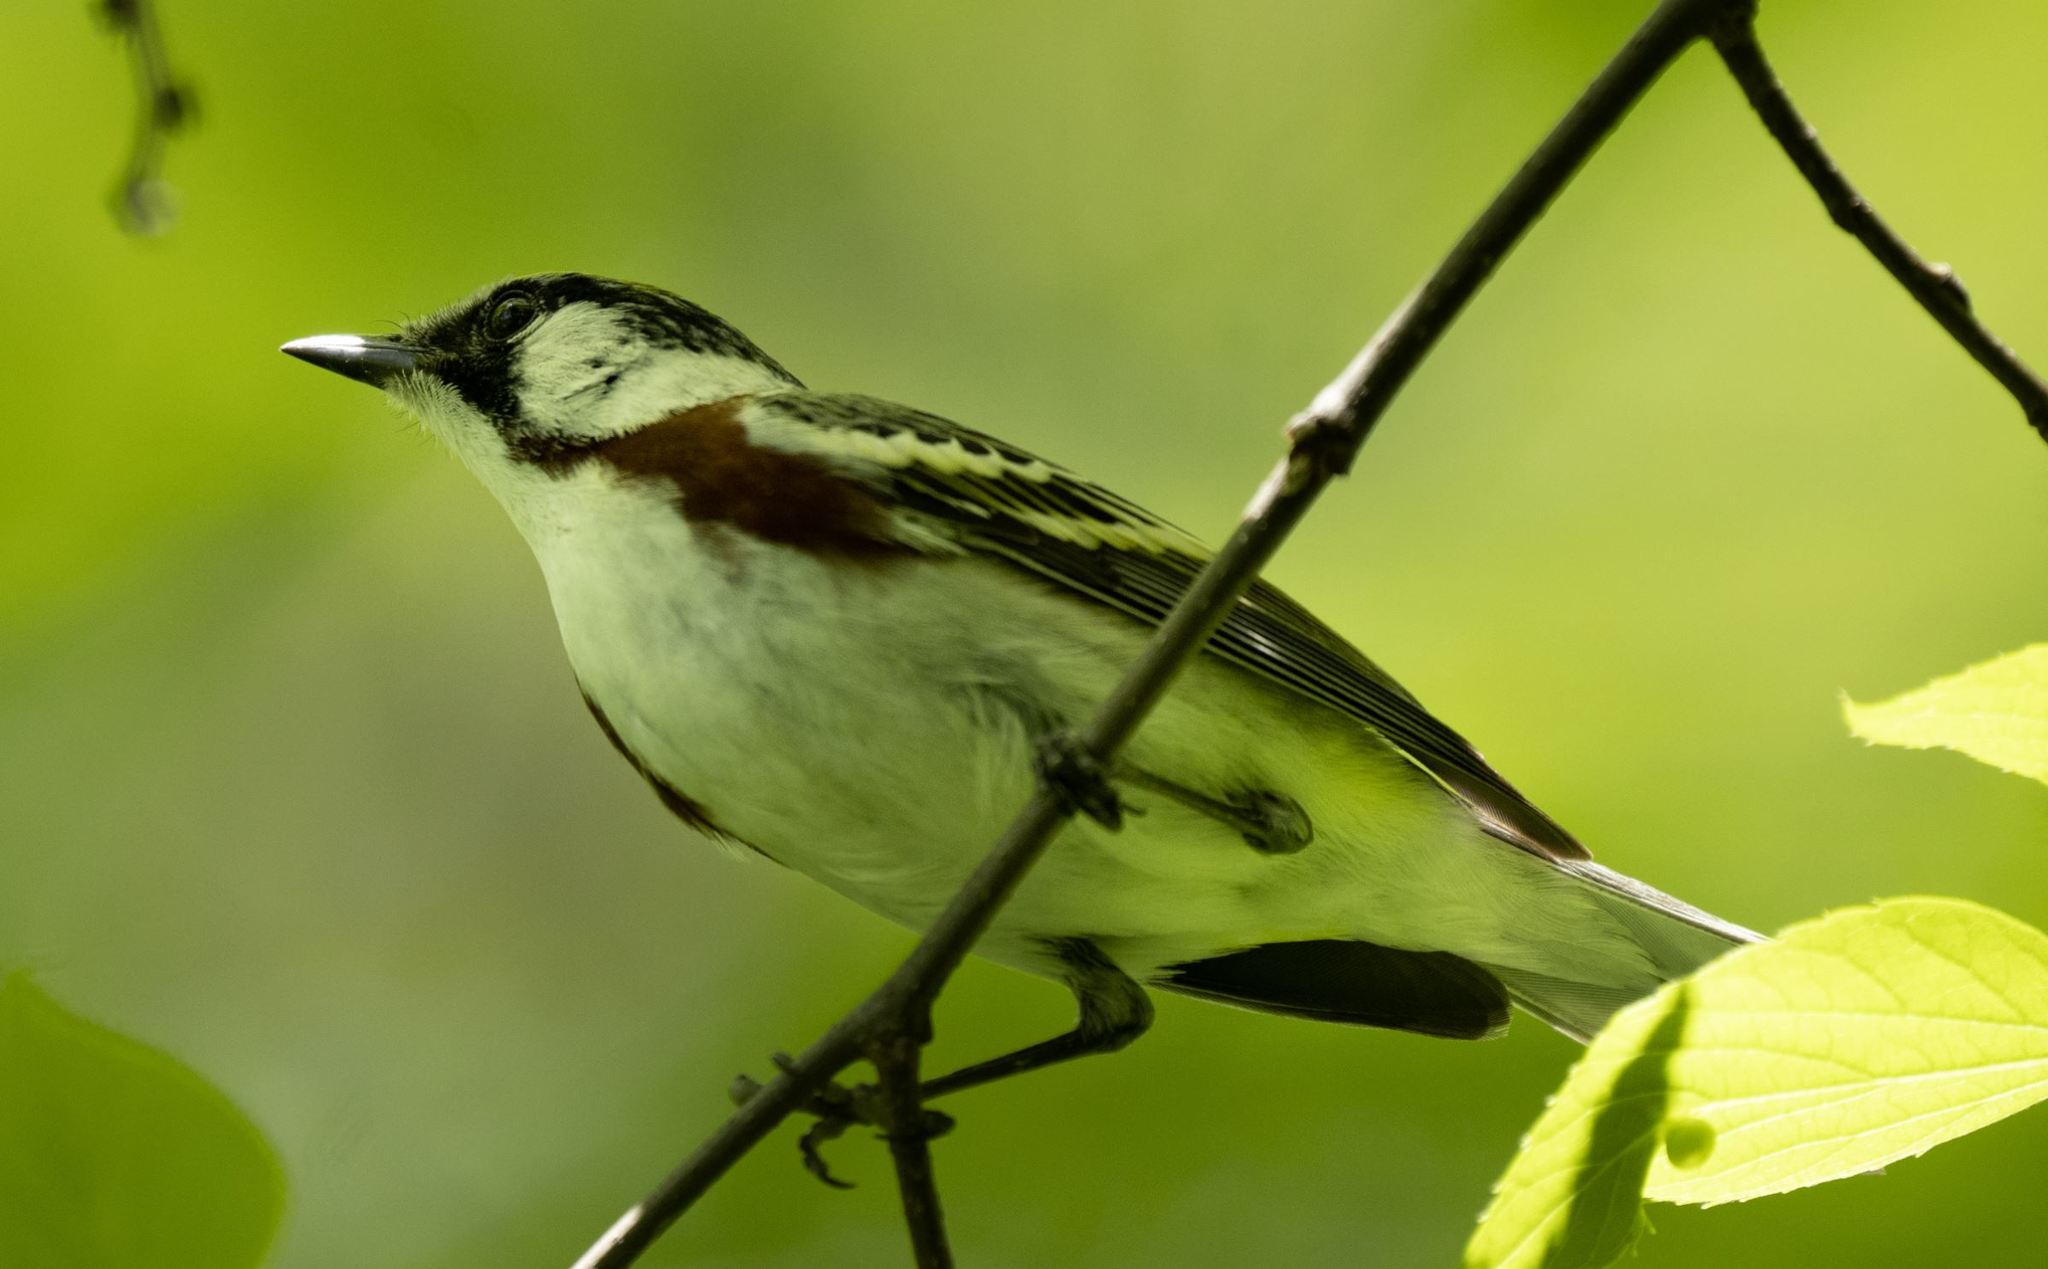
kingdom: Animalia
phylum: Chordata
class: Aves
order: Passeriformes
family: Parulidae
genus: Setophaga
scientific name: Setophaga pensylvanica
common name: Chestnut-sided warbler
